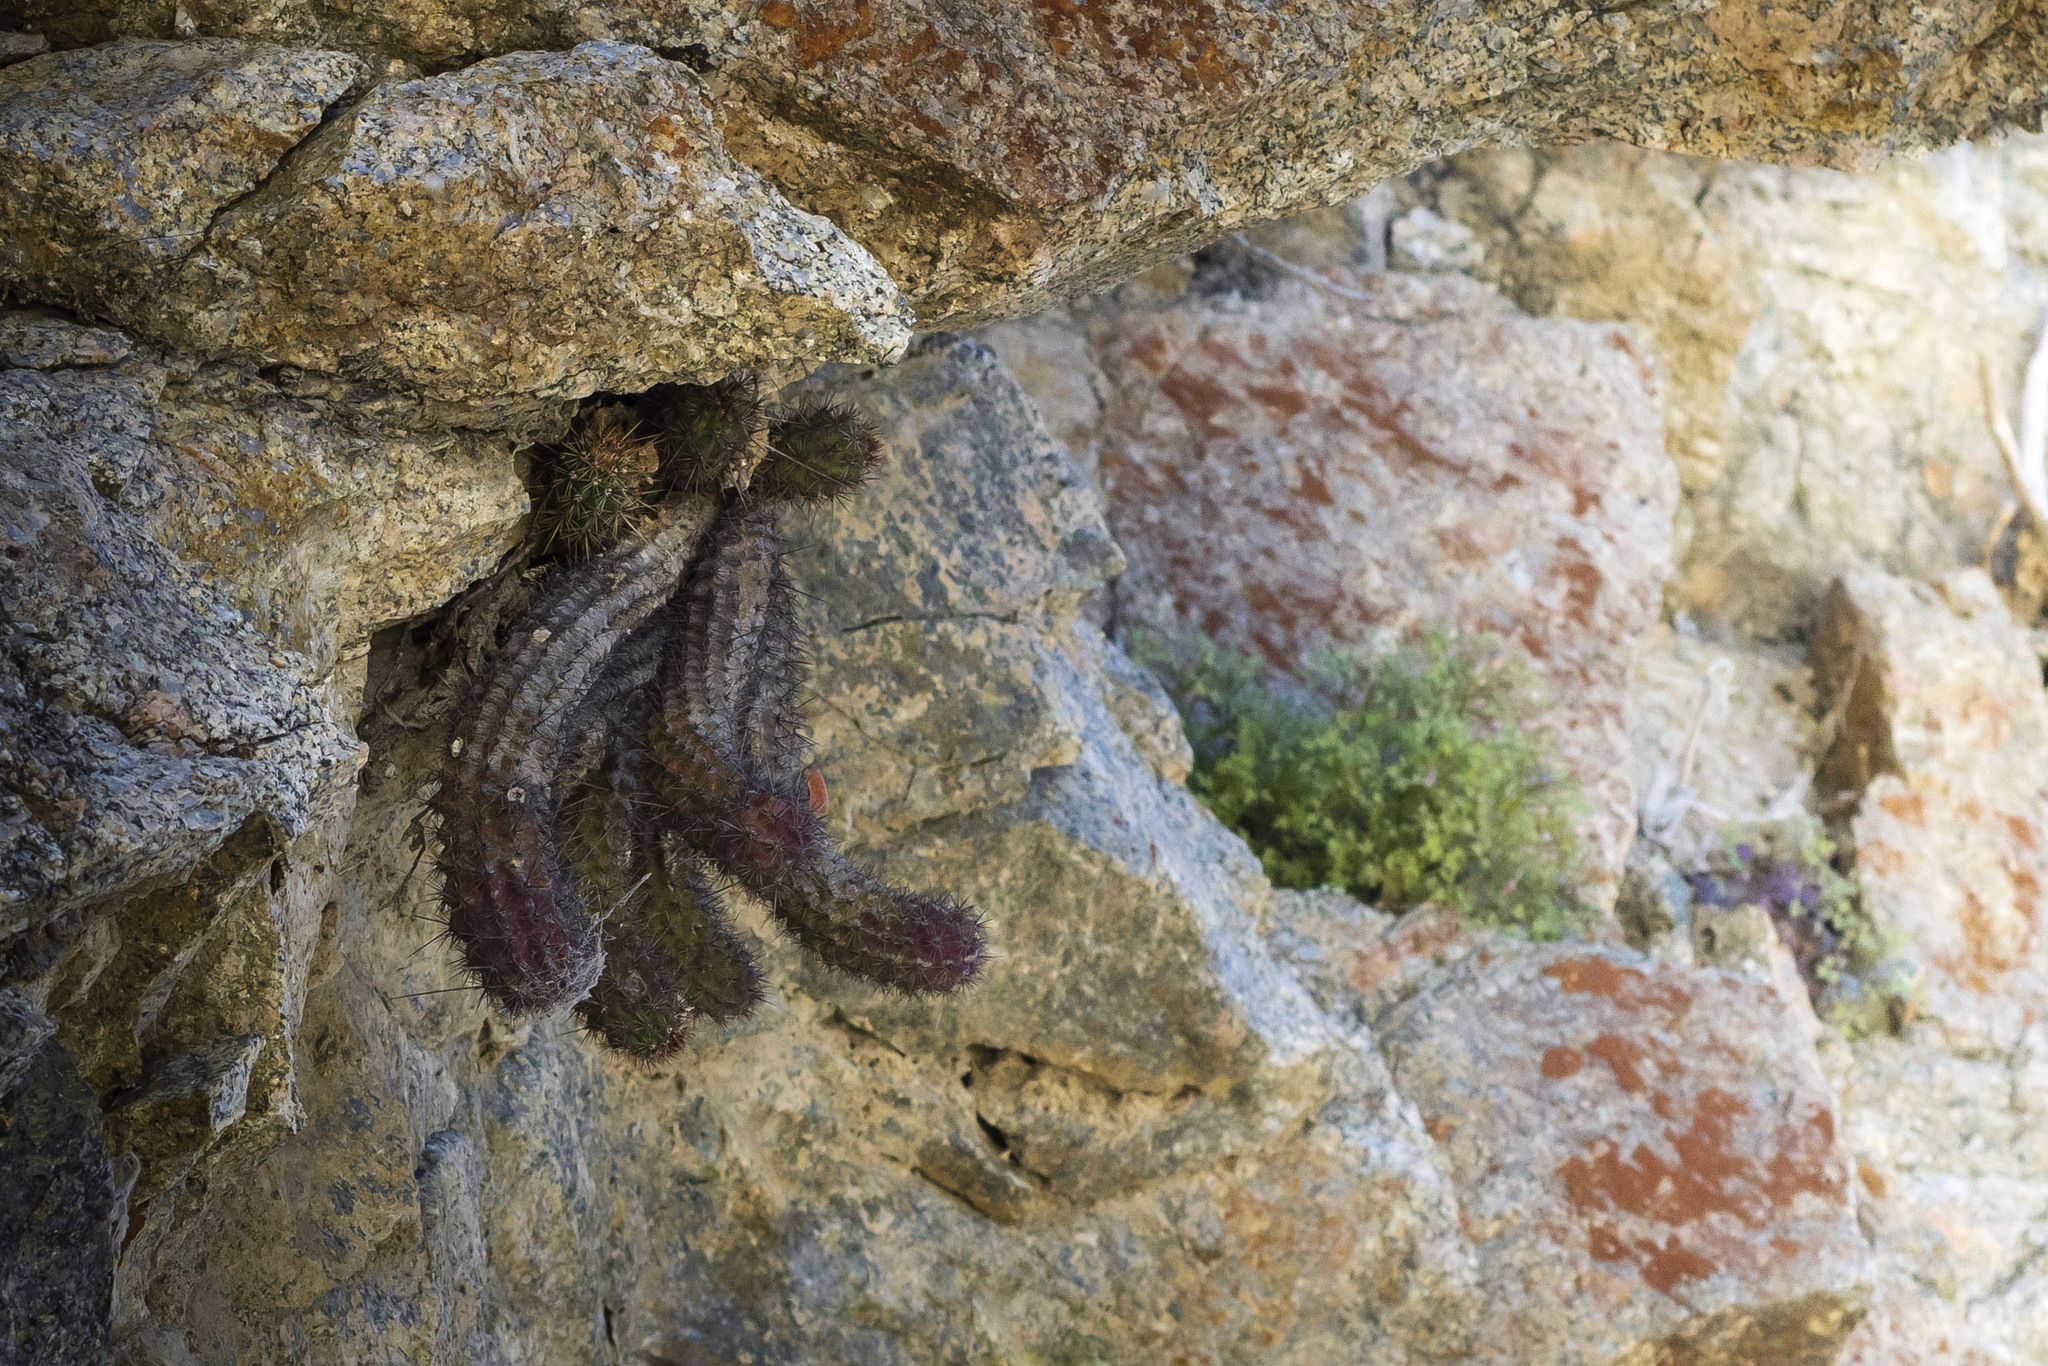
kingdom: Plantae
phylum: Tracheophyta
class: Magnoliopsida
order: Caryophyllales
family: Cactaceae
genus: Echinocereus
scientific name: Echinocereus brandegeei
